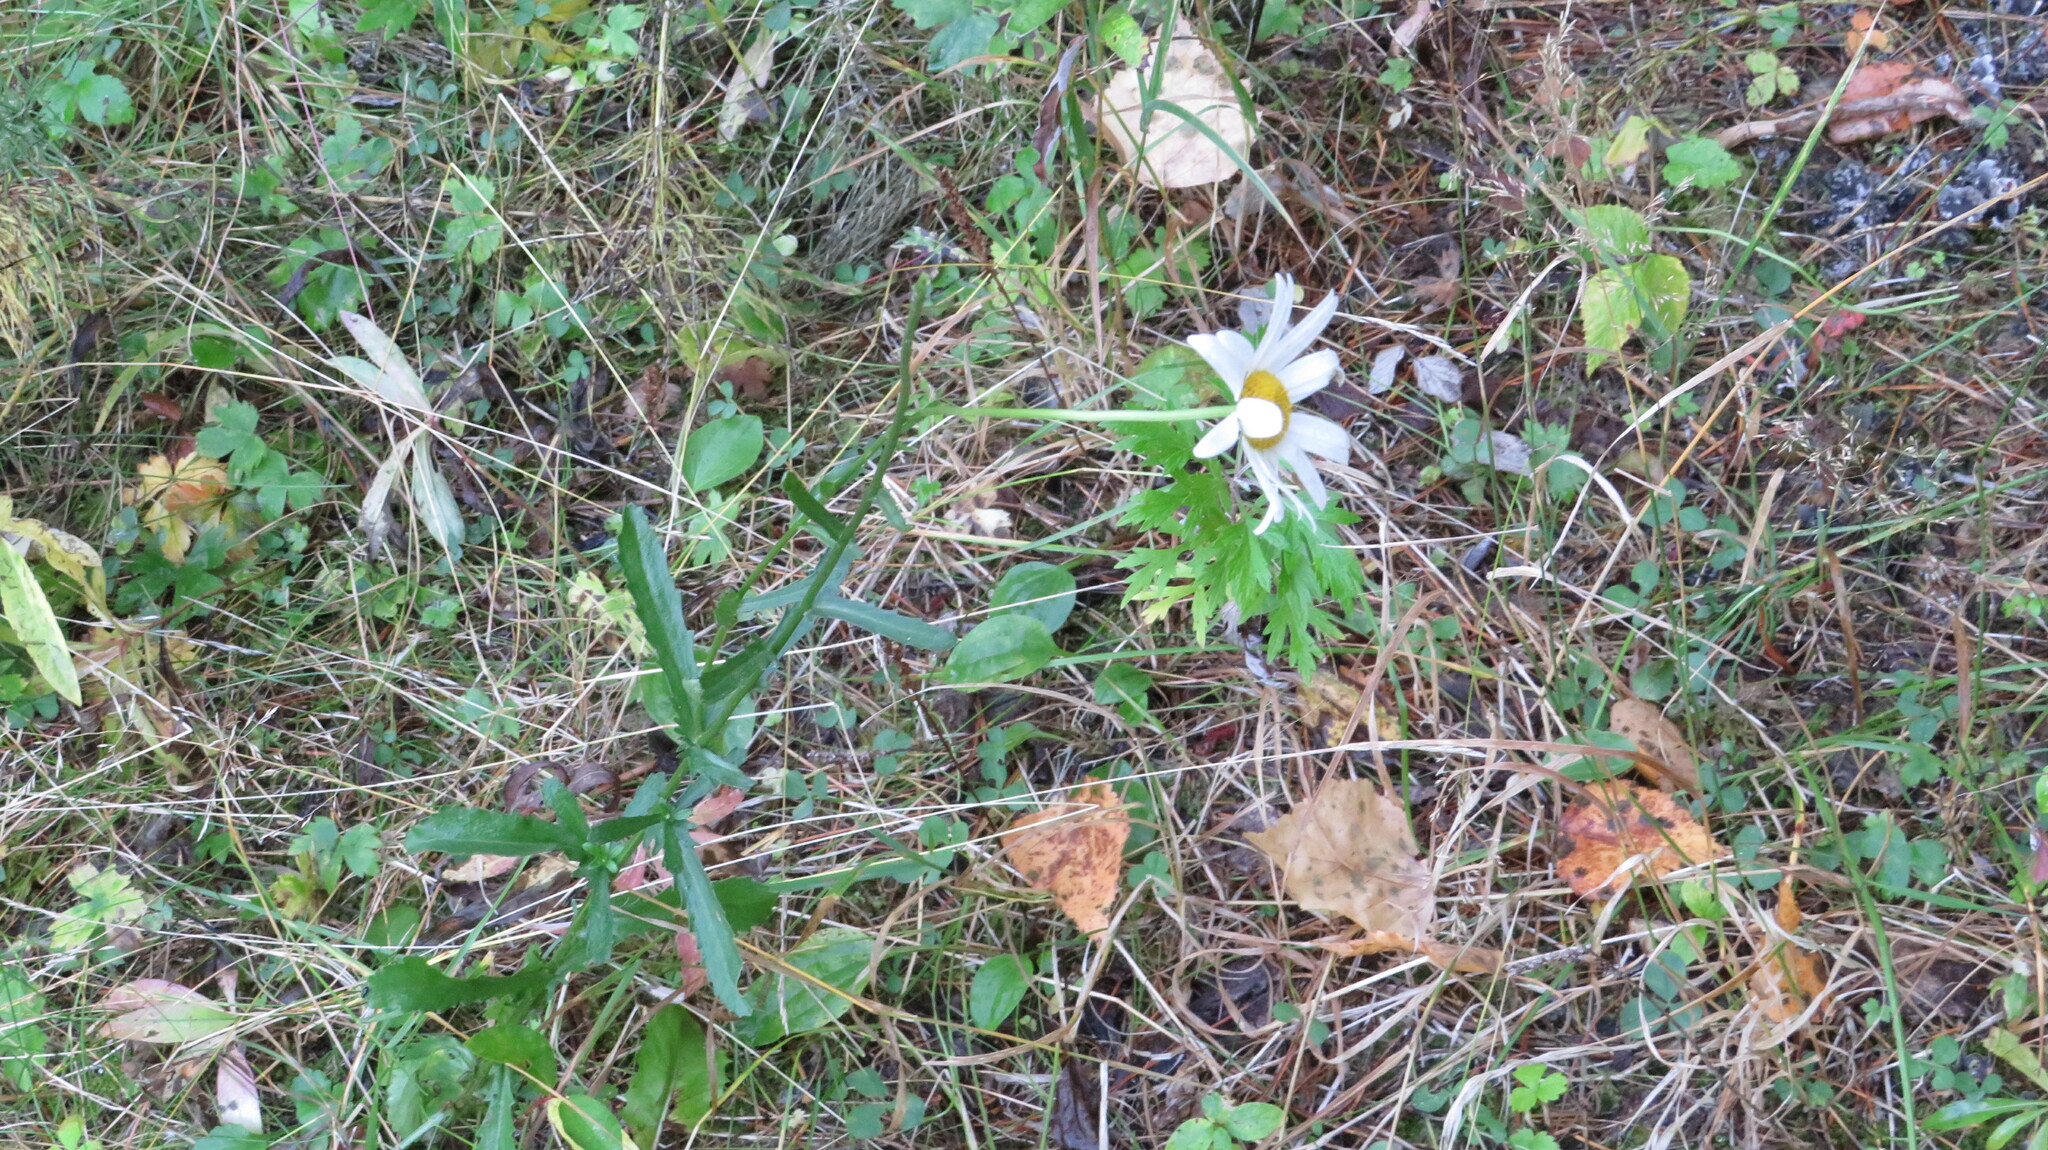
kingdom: Plantae
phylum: Tracheophyta
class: Magnoliopsida
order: Asterales
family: Asteraceae
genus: Leucanthemum
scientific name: Leucanthemum vulgare
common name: Oxeye daisy
